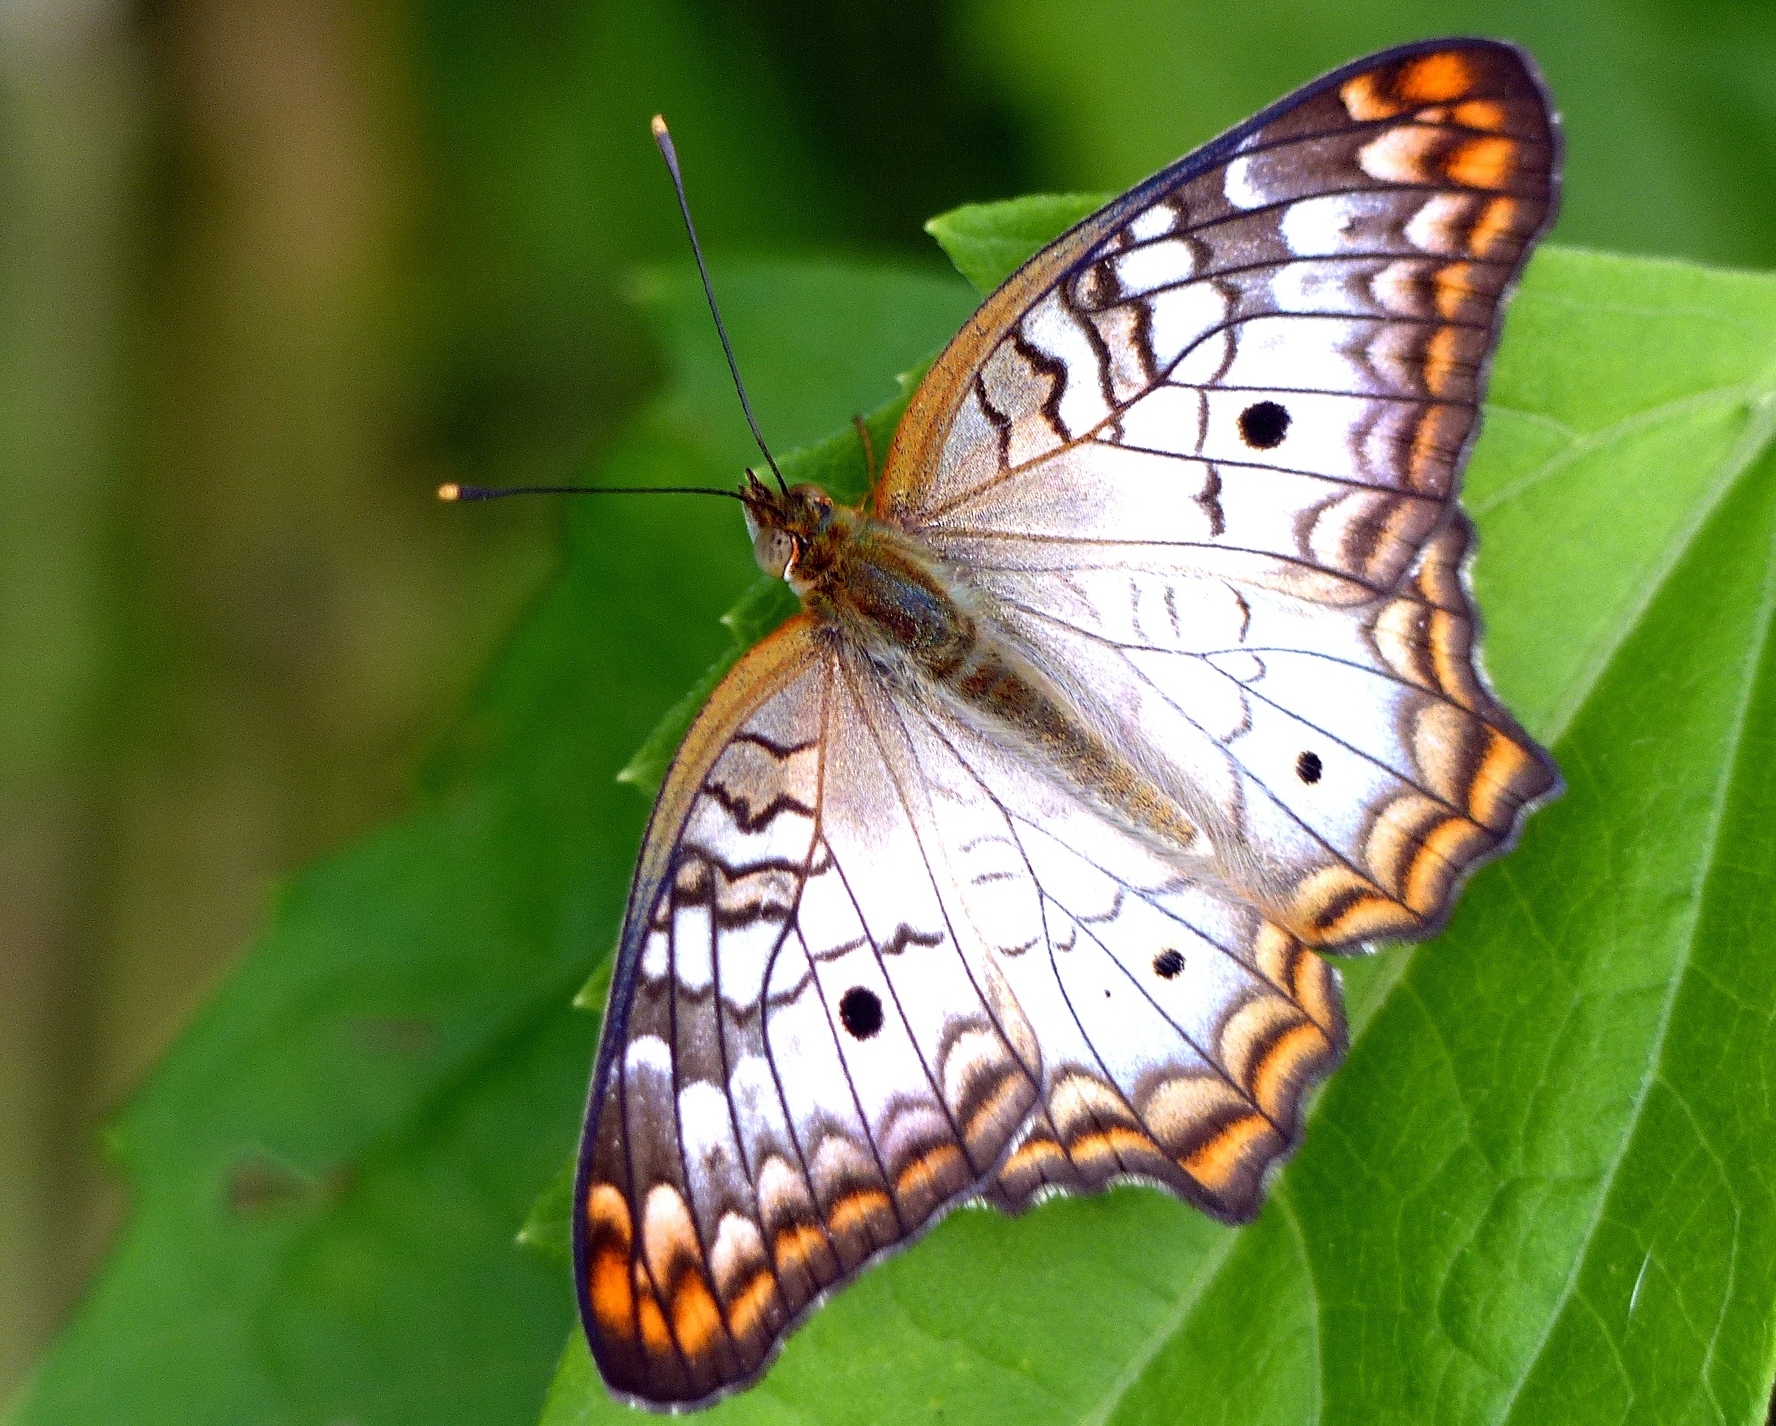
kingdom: Animalia
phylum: Arthropoda
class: Insecta
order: Lepidoptera
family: Nymphalidae
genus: Anartia
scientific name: Anartia jatrophae
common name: White peacock
